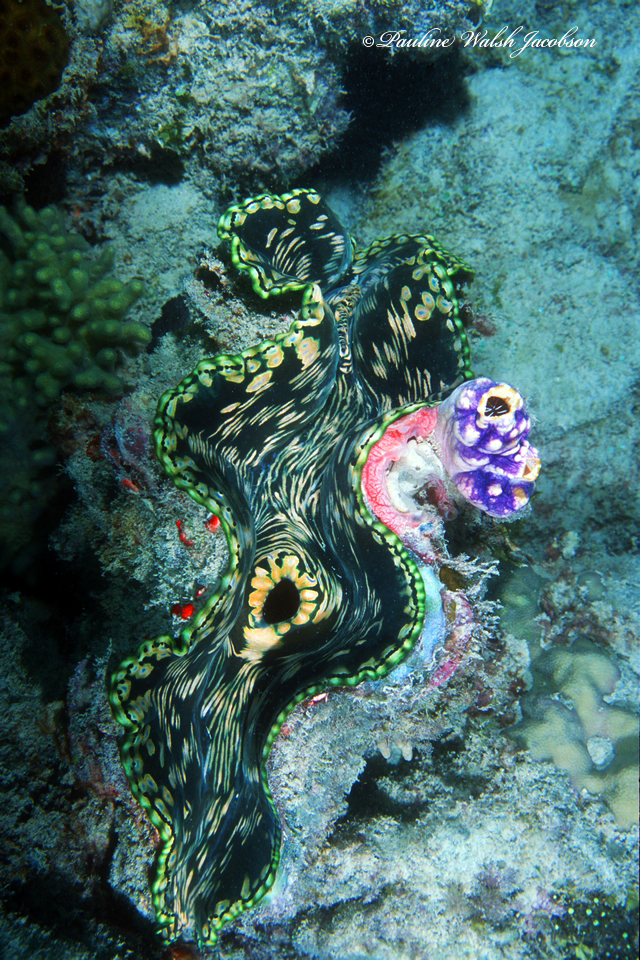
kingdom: Animalia
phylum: Mollusca
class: Bivalvia
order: Cardiida
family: Cardiidae
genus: Tridacna
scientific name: Tridacna squamosa
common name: Fluted clam
